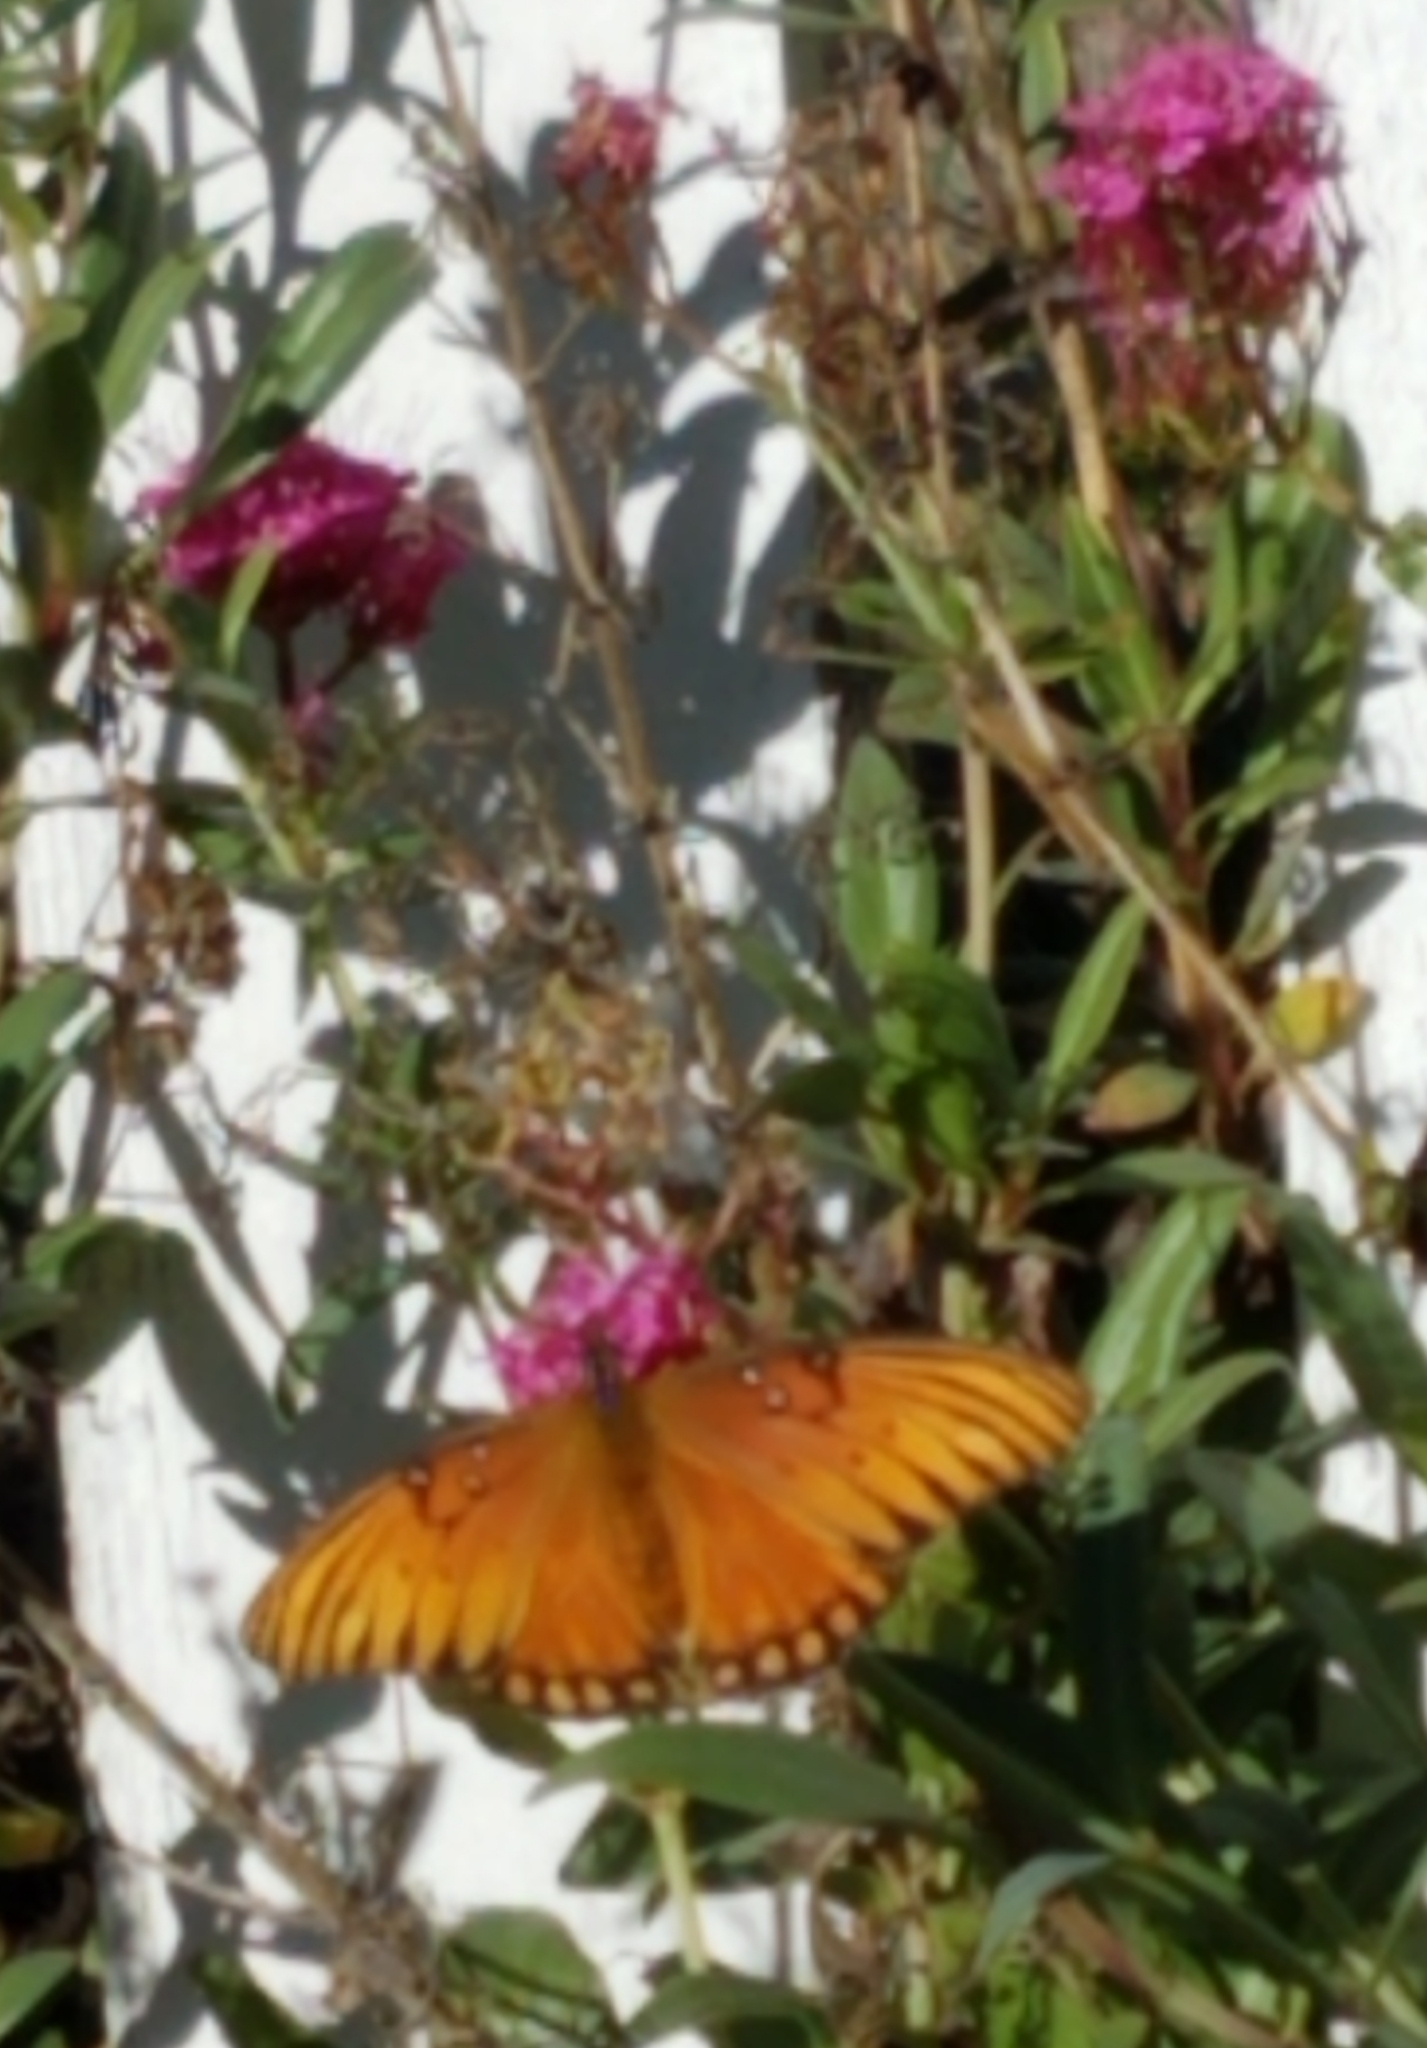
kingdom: Animalia
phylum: Arthropoda
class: Insecta
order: Lepidoptera
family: Nymphalidae
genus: Dione
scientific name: Dione vanillae
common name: Gulf fritillary
